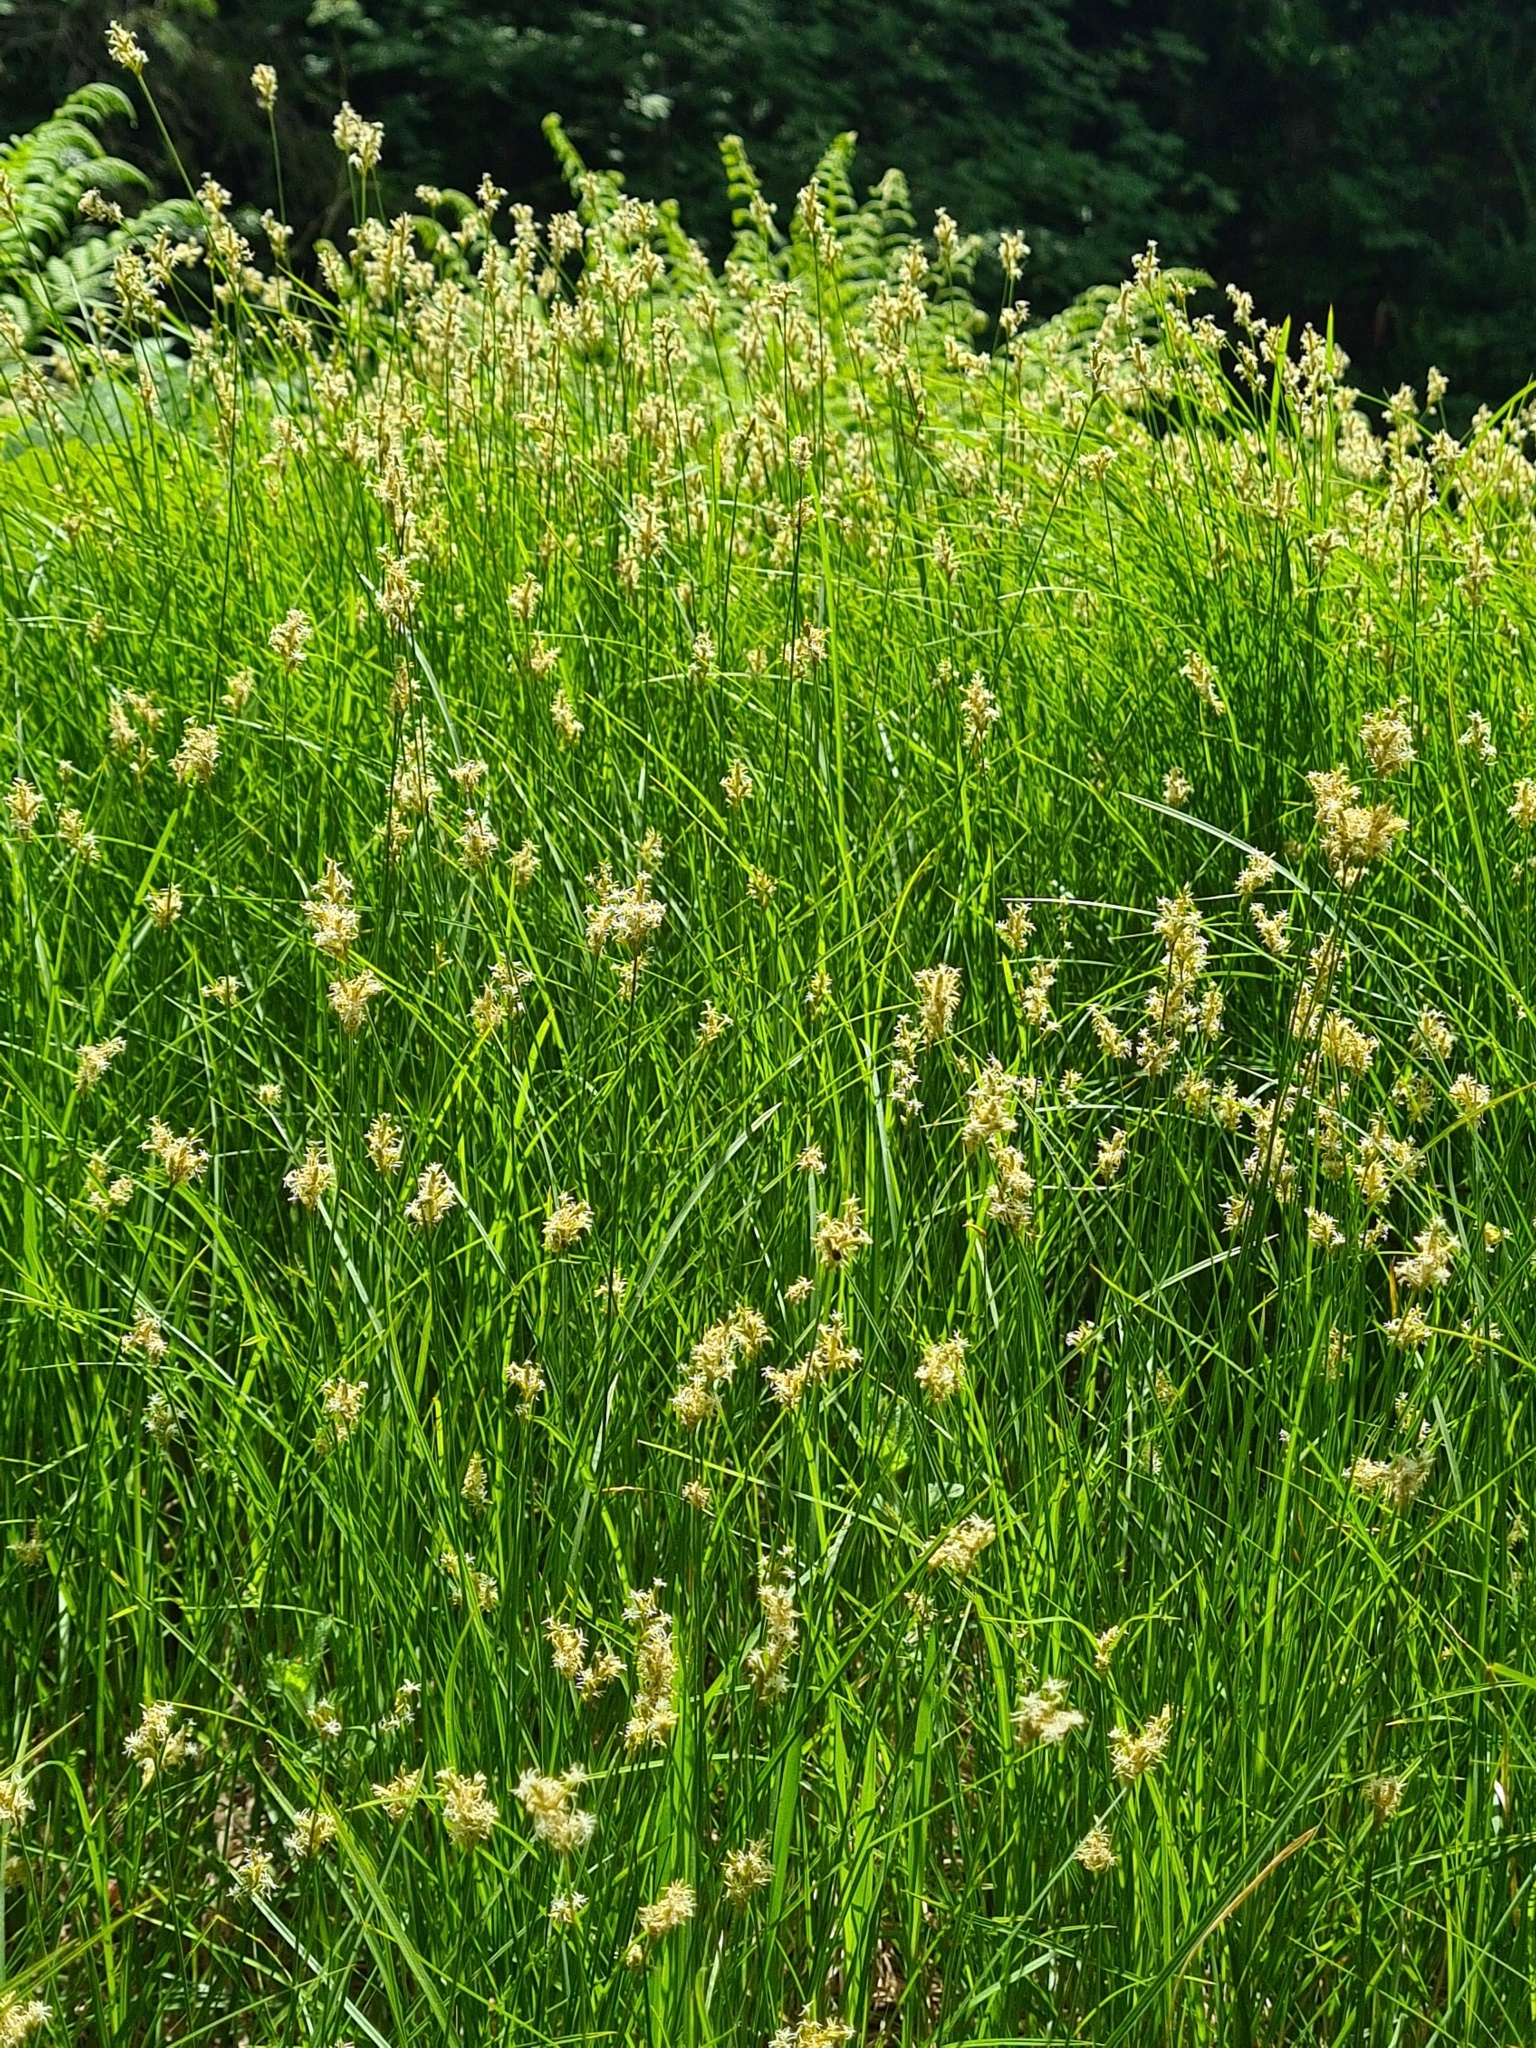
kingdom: Plantae
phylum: Tracheophyta
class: Liliopsida
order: Poales
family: Cyperaceae
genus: Carex
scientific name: Carex brizoides
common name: Quaking-grass sedge
